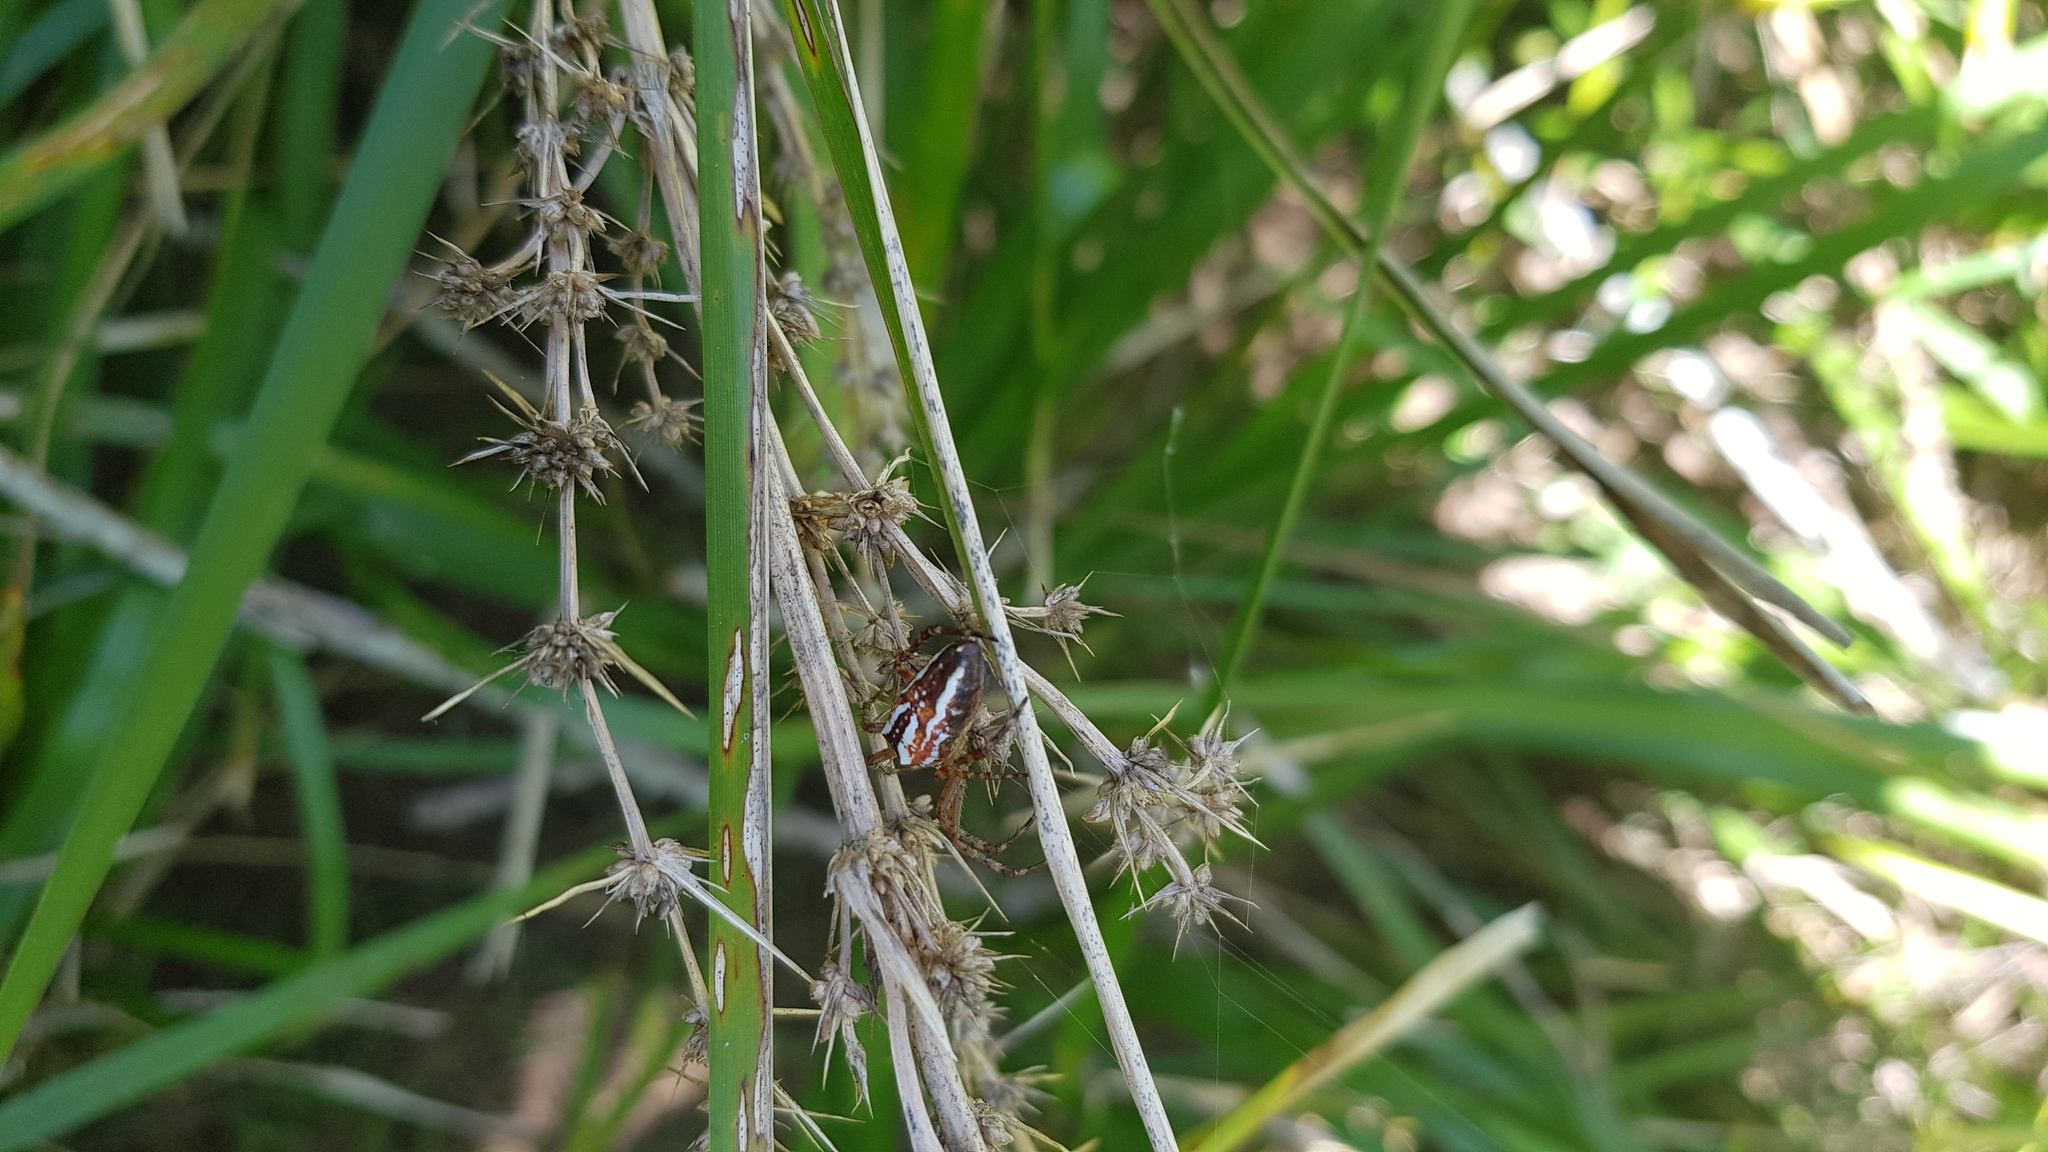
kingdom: Animalia
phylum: Arthropoda
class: Arachnida
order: Araneae
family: Araneidae
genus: Plebs
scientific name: Plebs bradleyi
